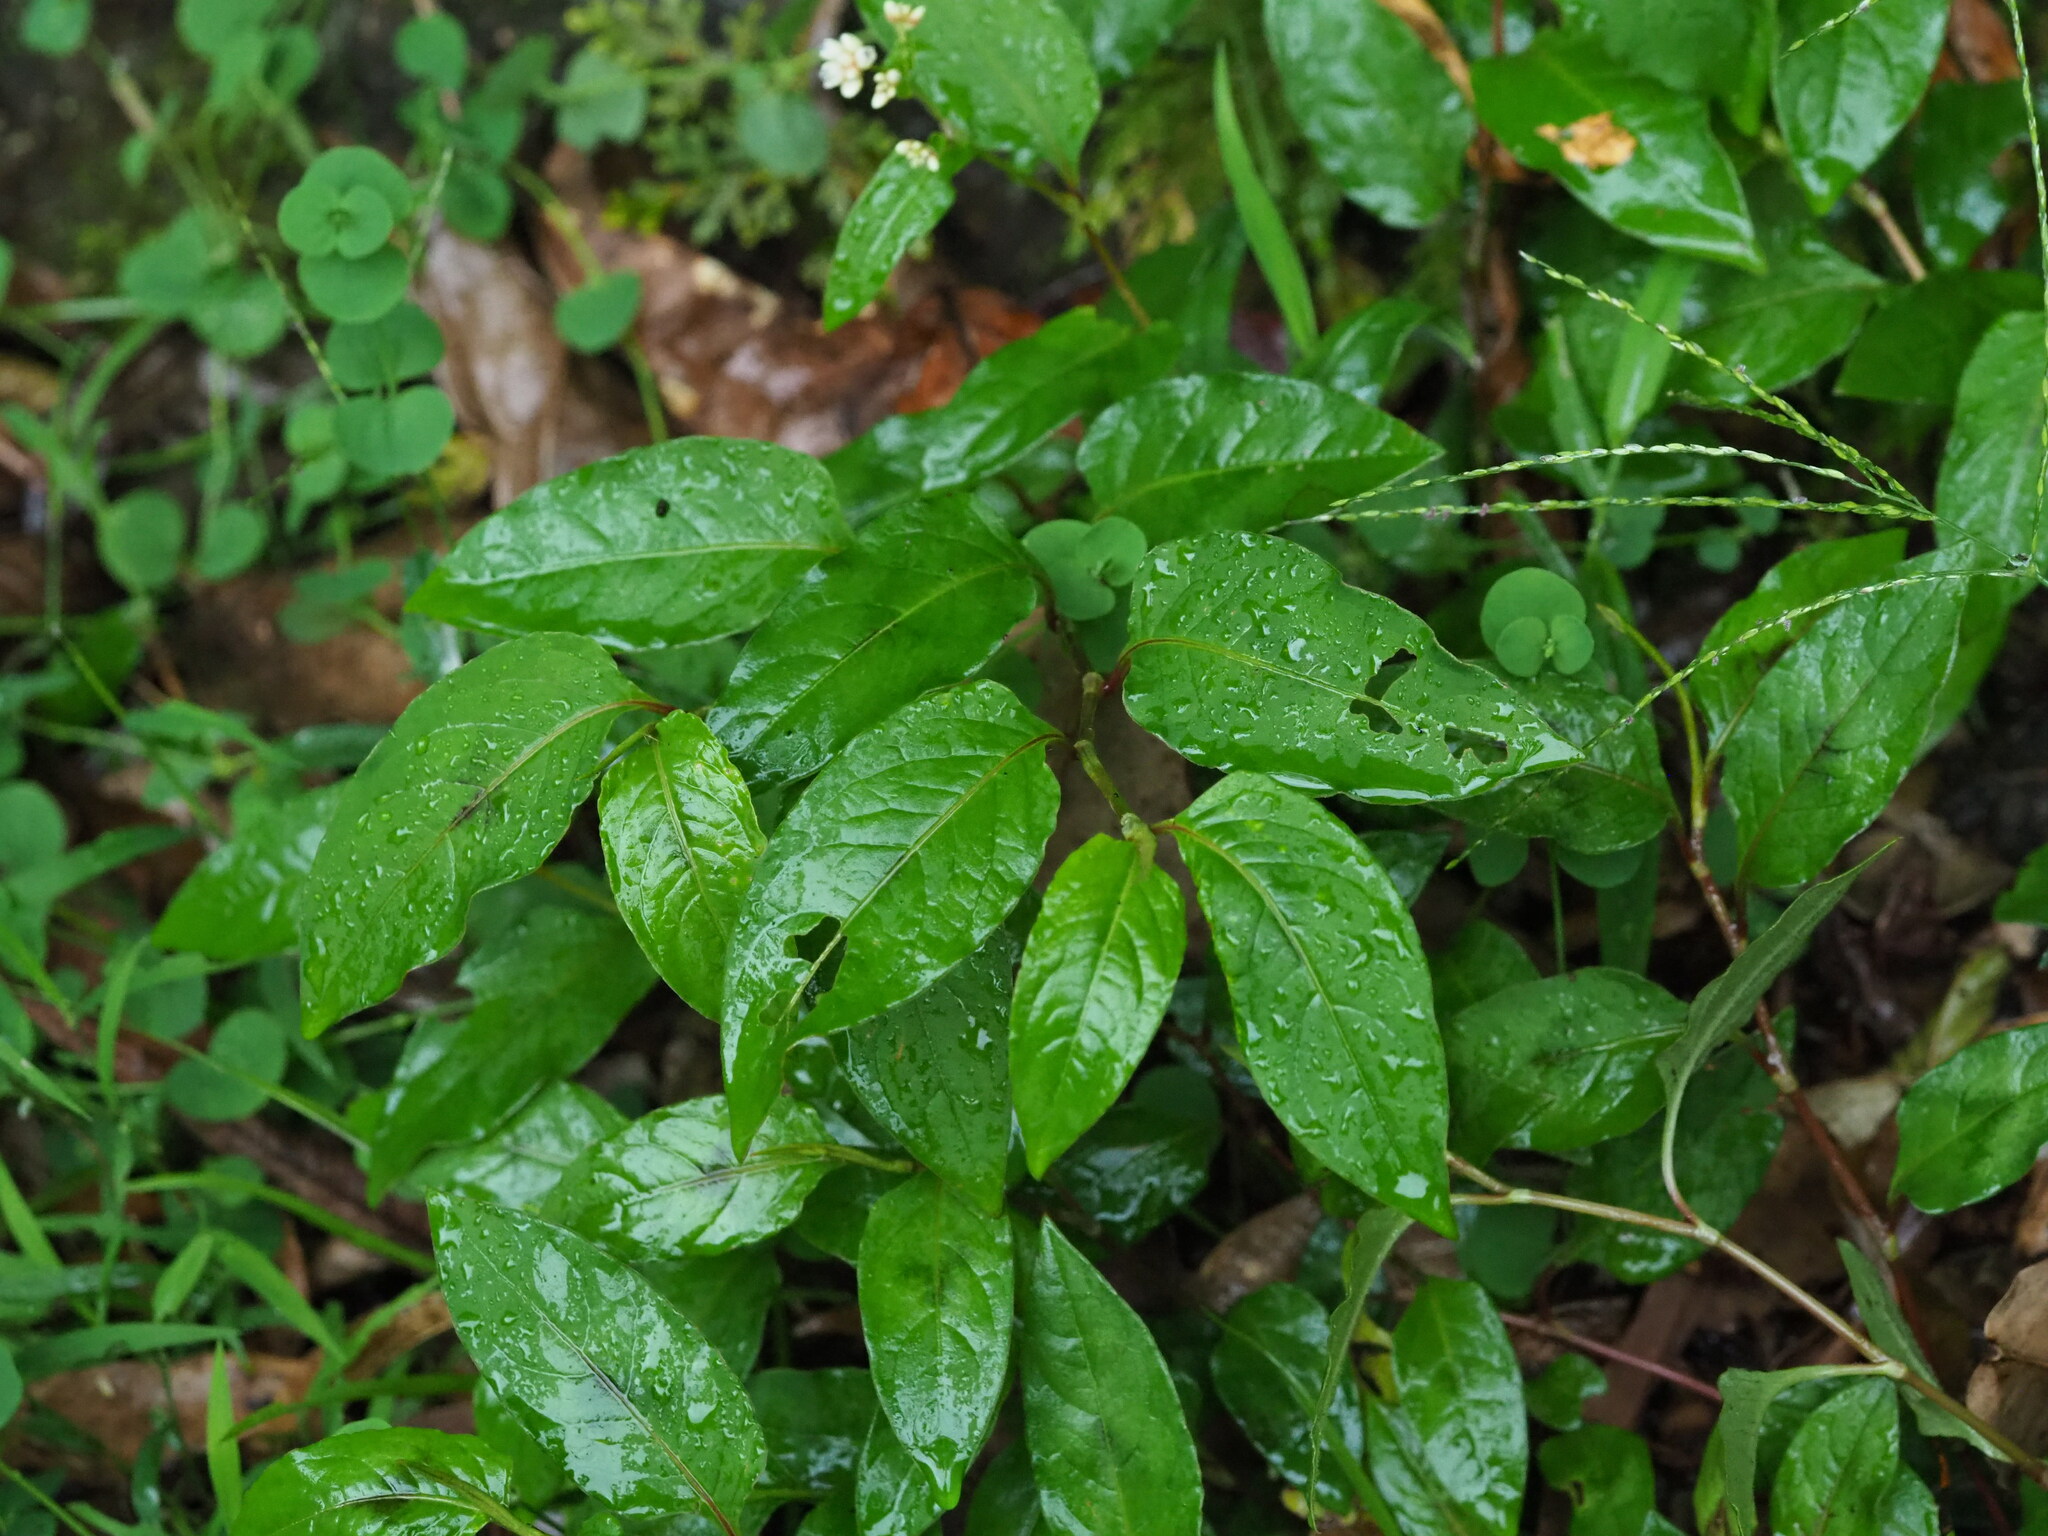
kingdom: Plantae
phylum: Tracheophyta
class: Magnoliopsida
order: Caryophyllales
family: Polygonaceae
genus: Persicaria
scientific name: Persicaria chinensis
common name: Chinese knotweed
